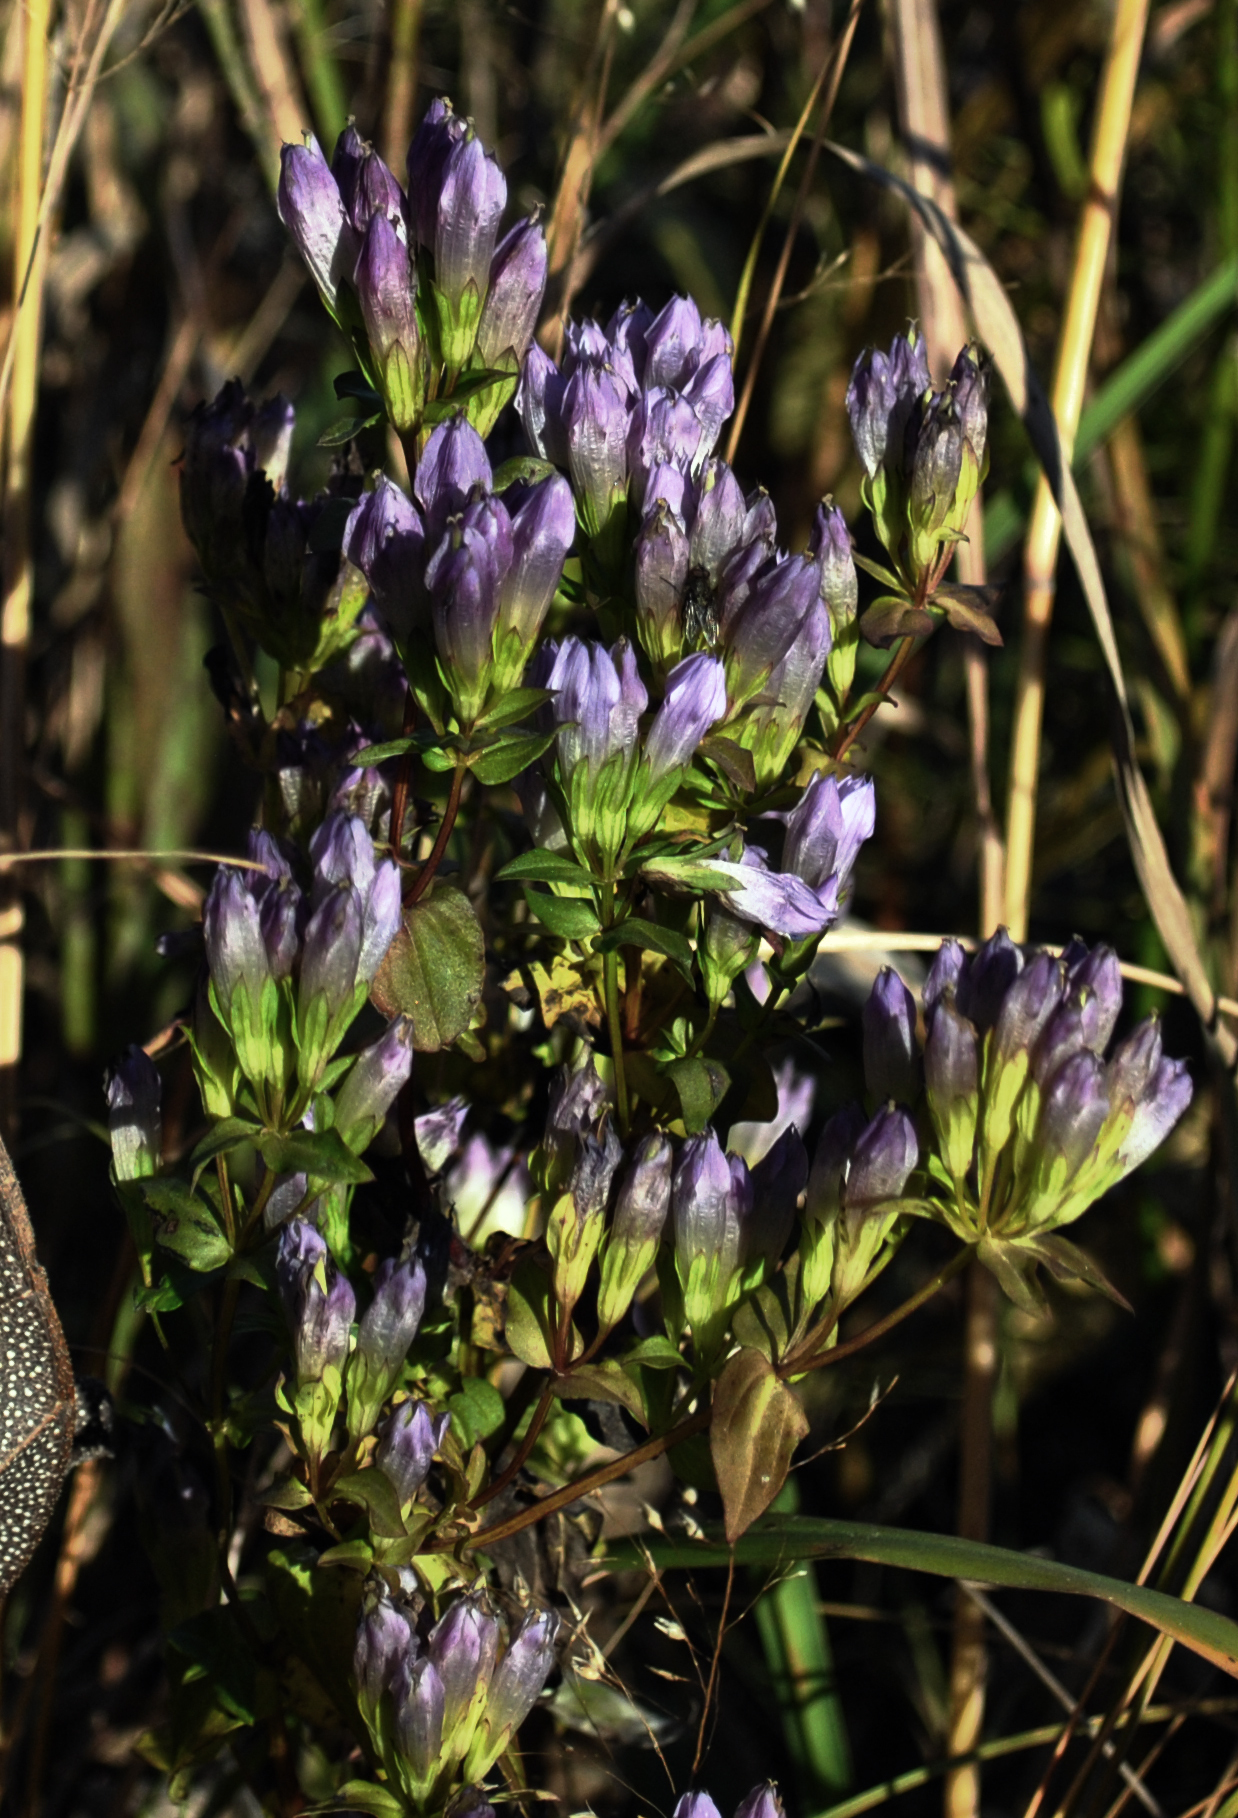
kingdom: Plantae
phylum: Tracheophyta
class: Magnoliopsida
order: Gentianales
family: Gentianaceae
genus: Gentianella
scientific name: Gentianella quinquefolia
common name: Agueweed
